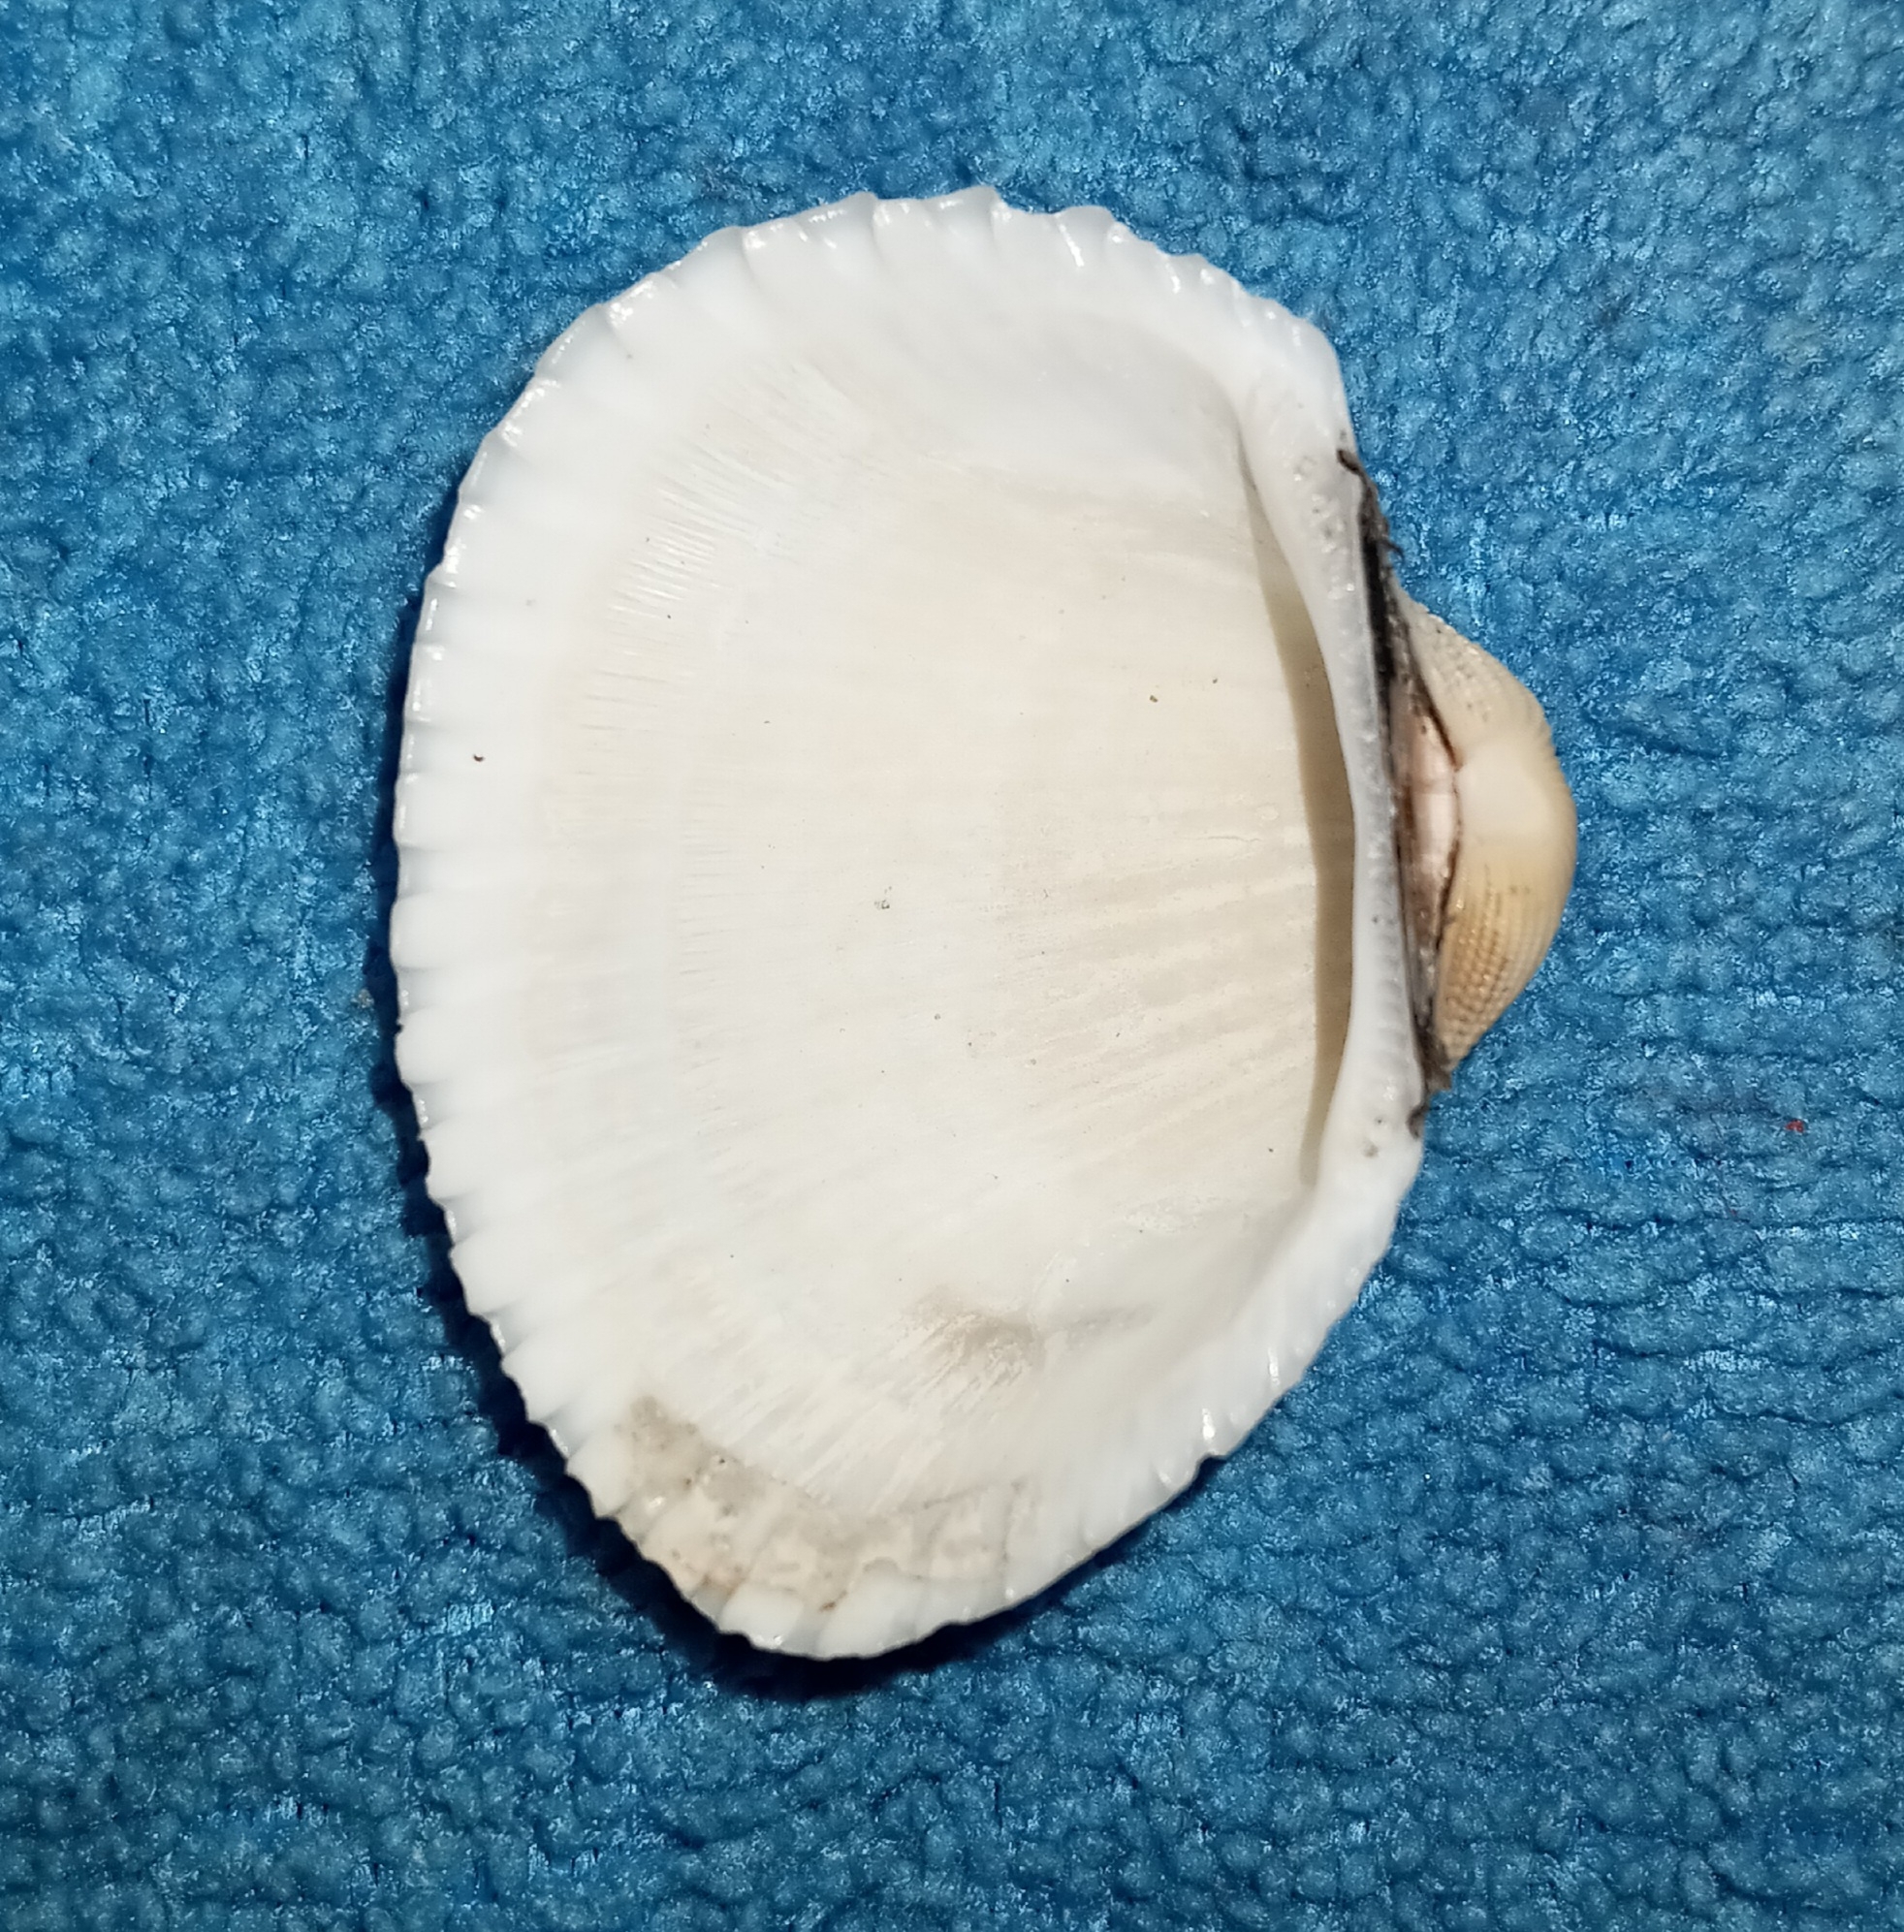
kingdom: Animalia
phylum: Mollusca
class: Bivalvia
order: Arcida
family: Arcidae
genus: Anadara
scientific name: Anadara brasiliana
